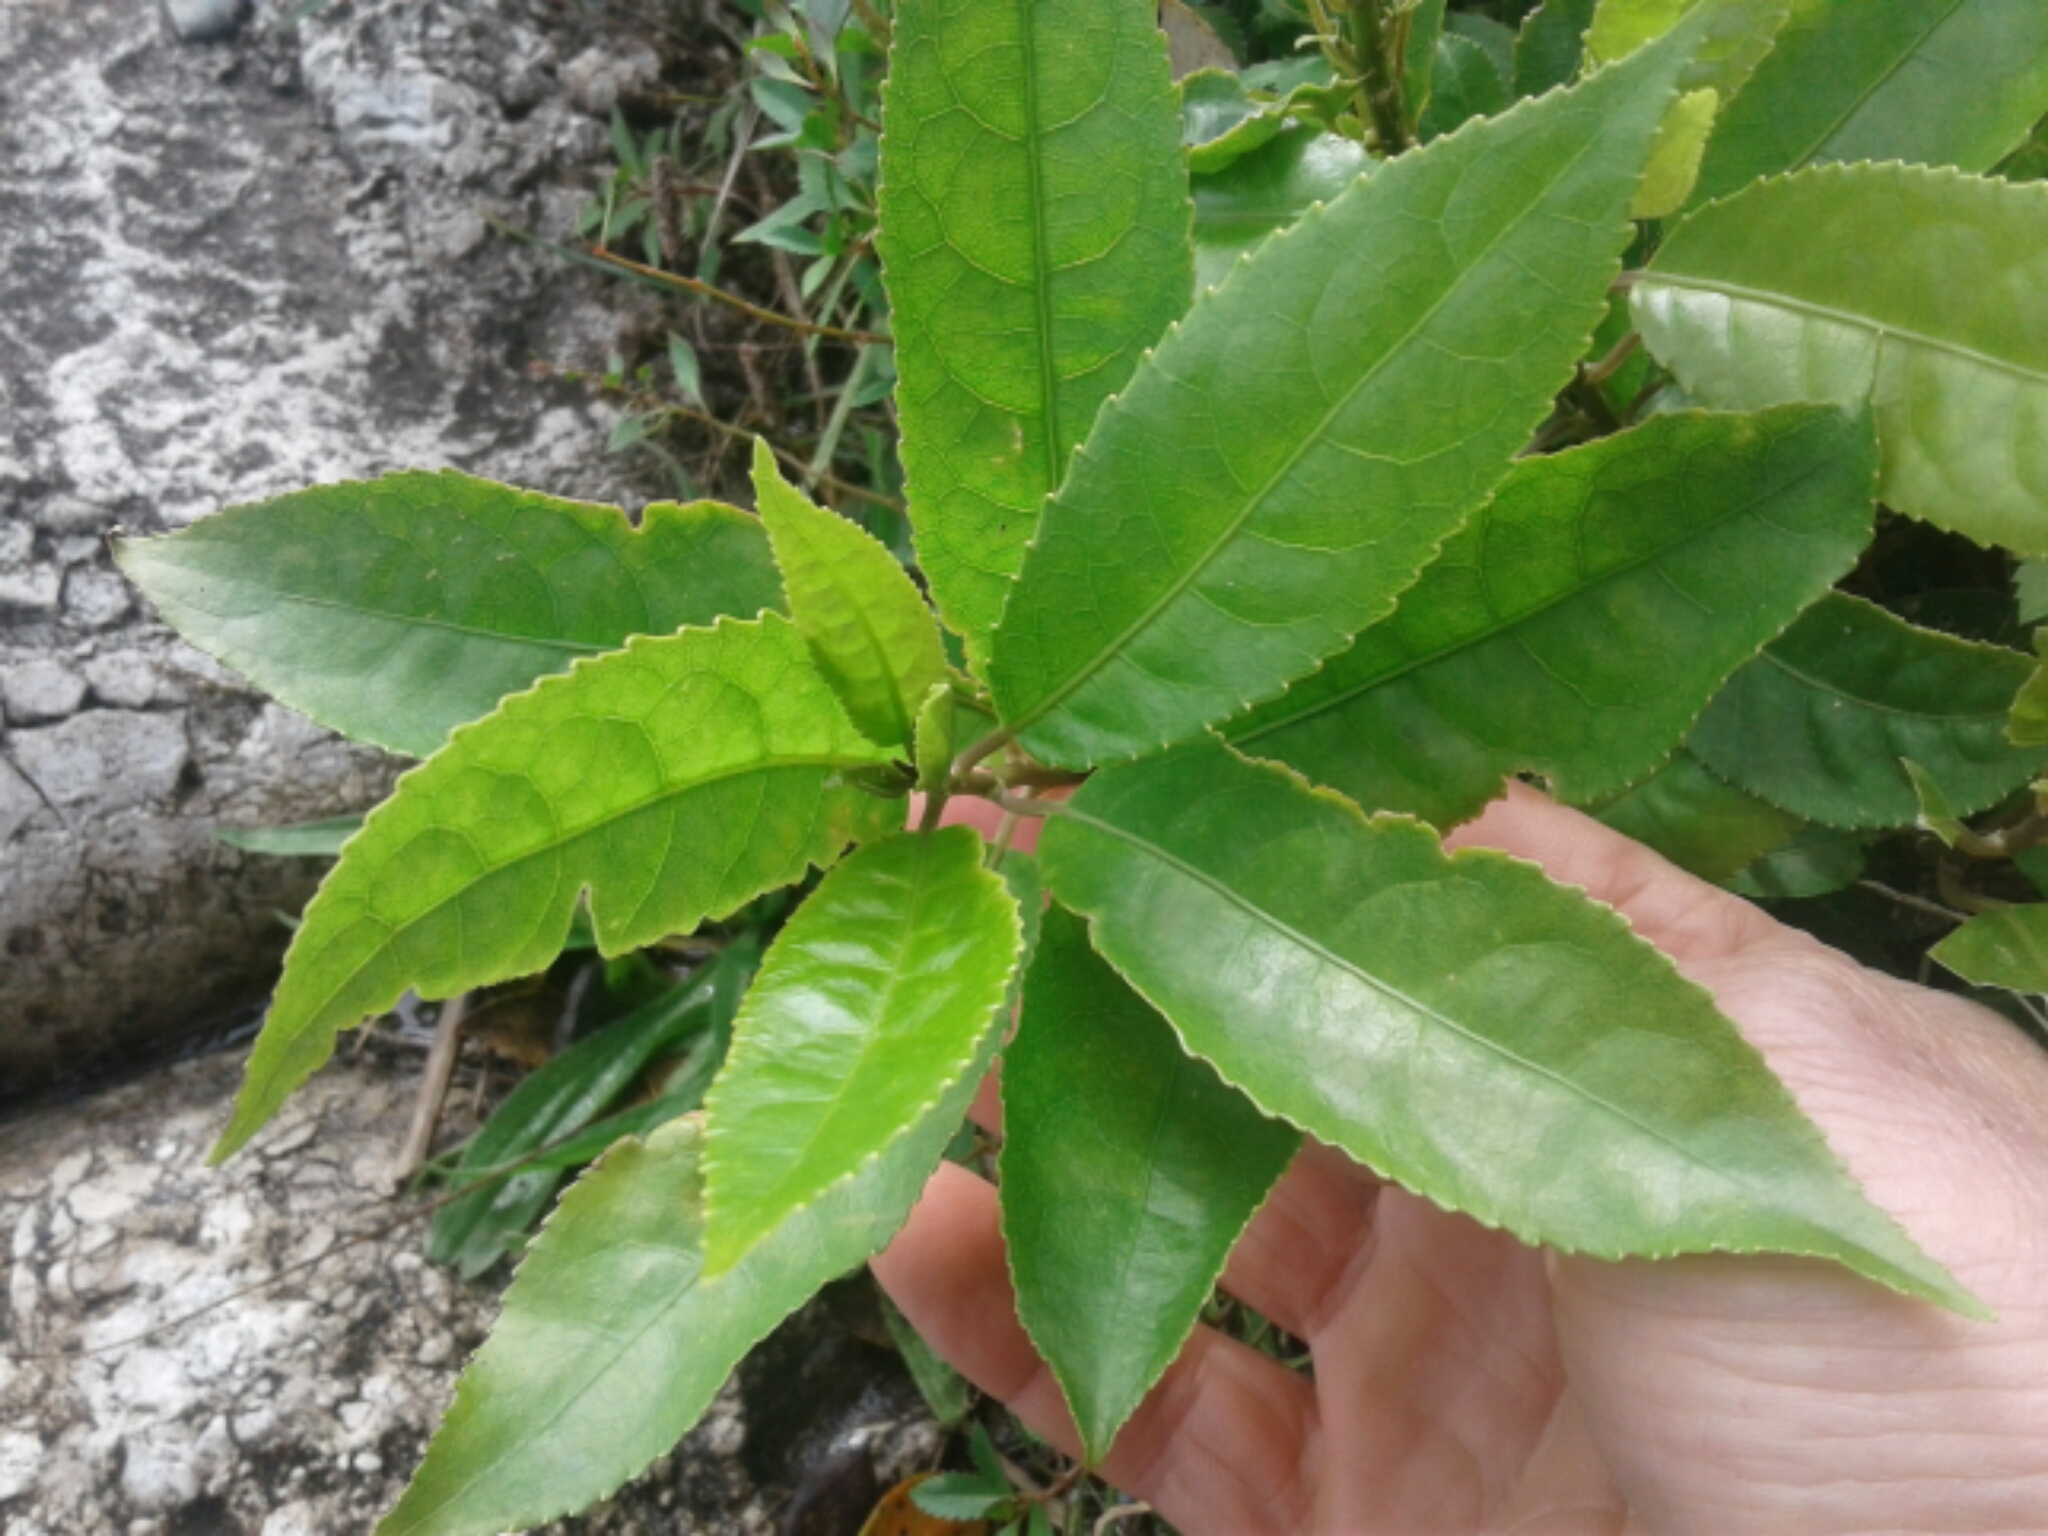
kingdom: Plantae
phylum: Tracheophyta
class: Magnoliopsida
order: Malpighiales
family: Violaceae
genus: Melicytus
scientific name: Melicytus ramiflorus
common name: Mahoe
